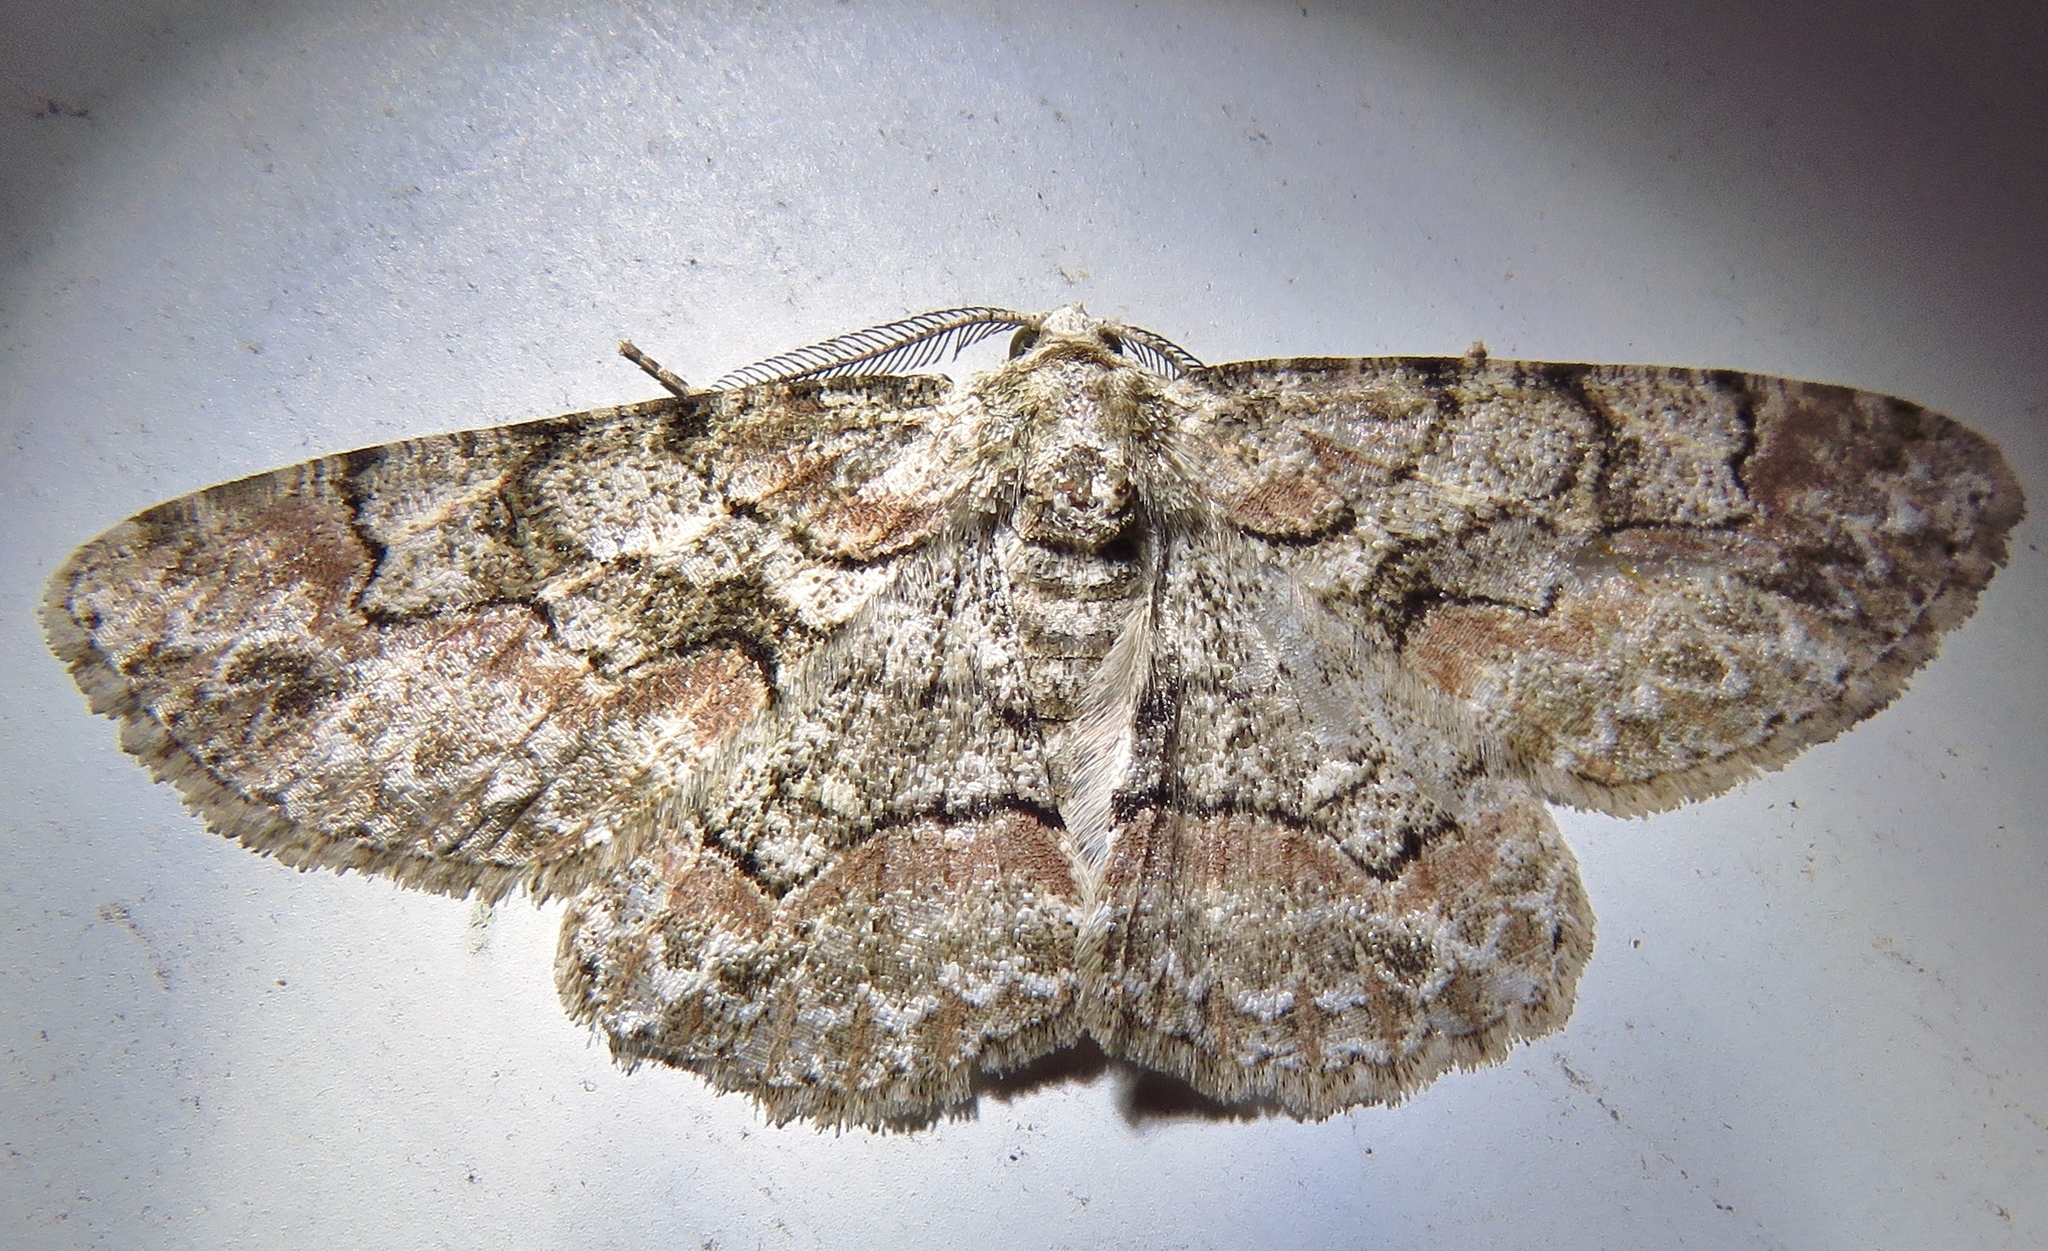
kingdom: Animalia
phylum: Arthropoda
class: Insecta
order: Lepidoptera
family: Geometridae
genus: Iridopsis
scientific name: Iridopsis defectaria
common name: Brown-shaded gray
